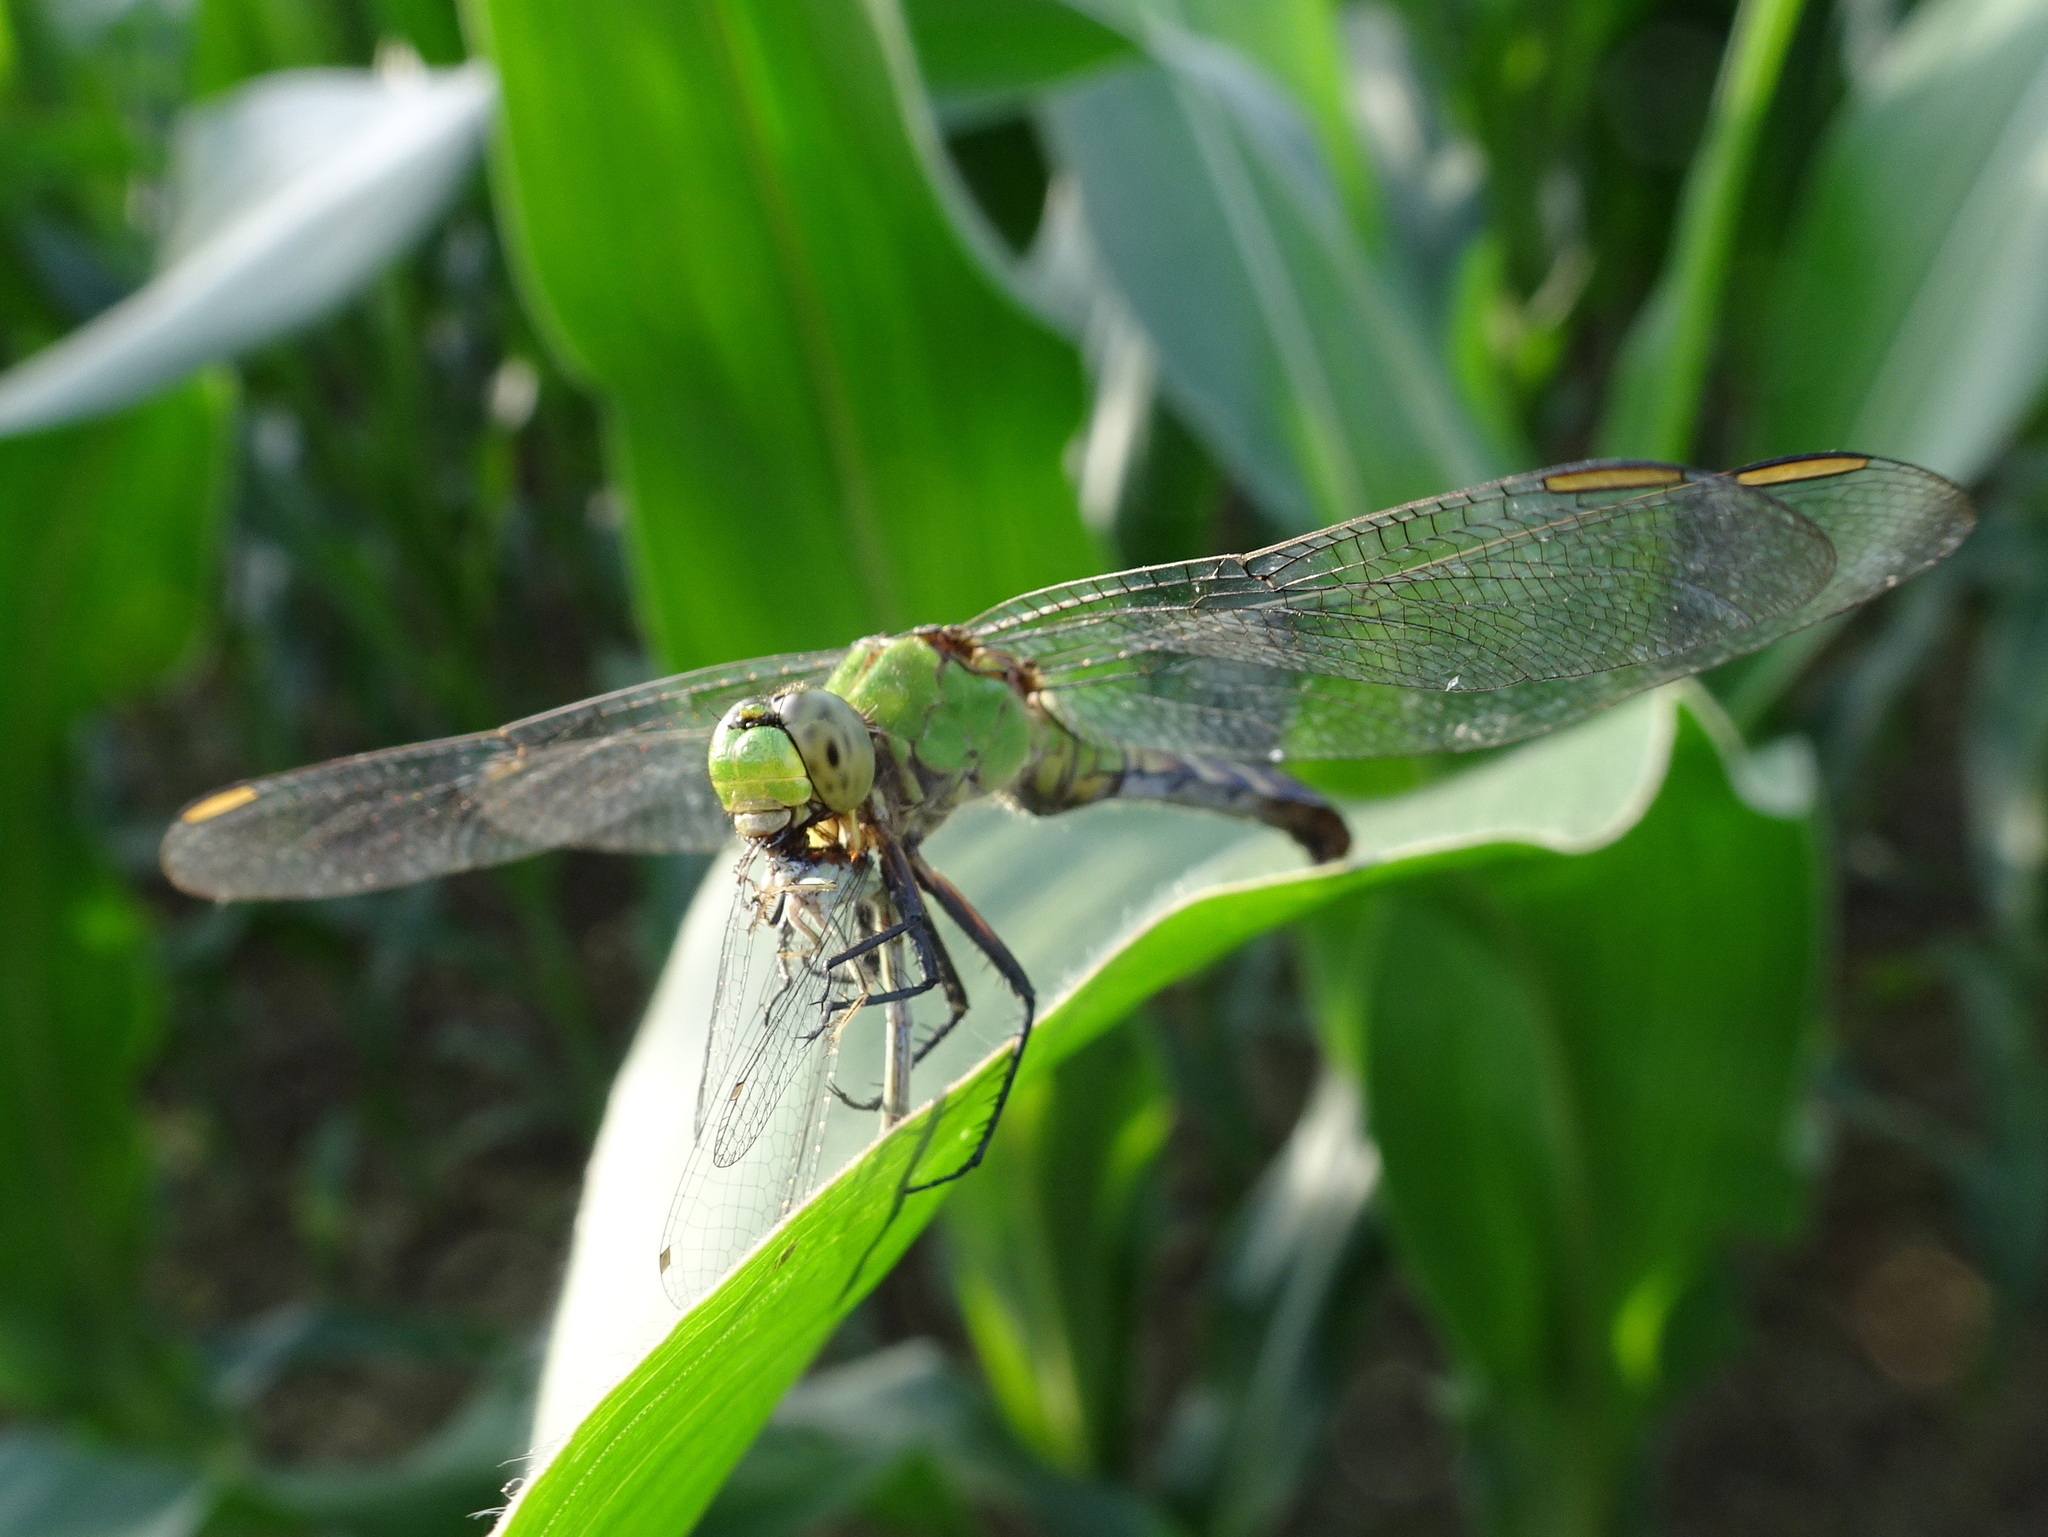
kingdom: Animalia
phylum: Arthropoda
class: Insecta
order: Odonata
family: Libellulidae
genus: Erythemis
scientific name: Erythemis simplicicollis
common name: Eastern pondhawk
